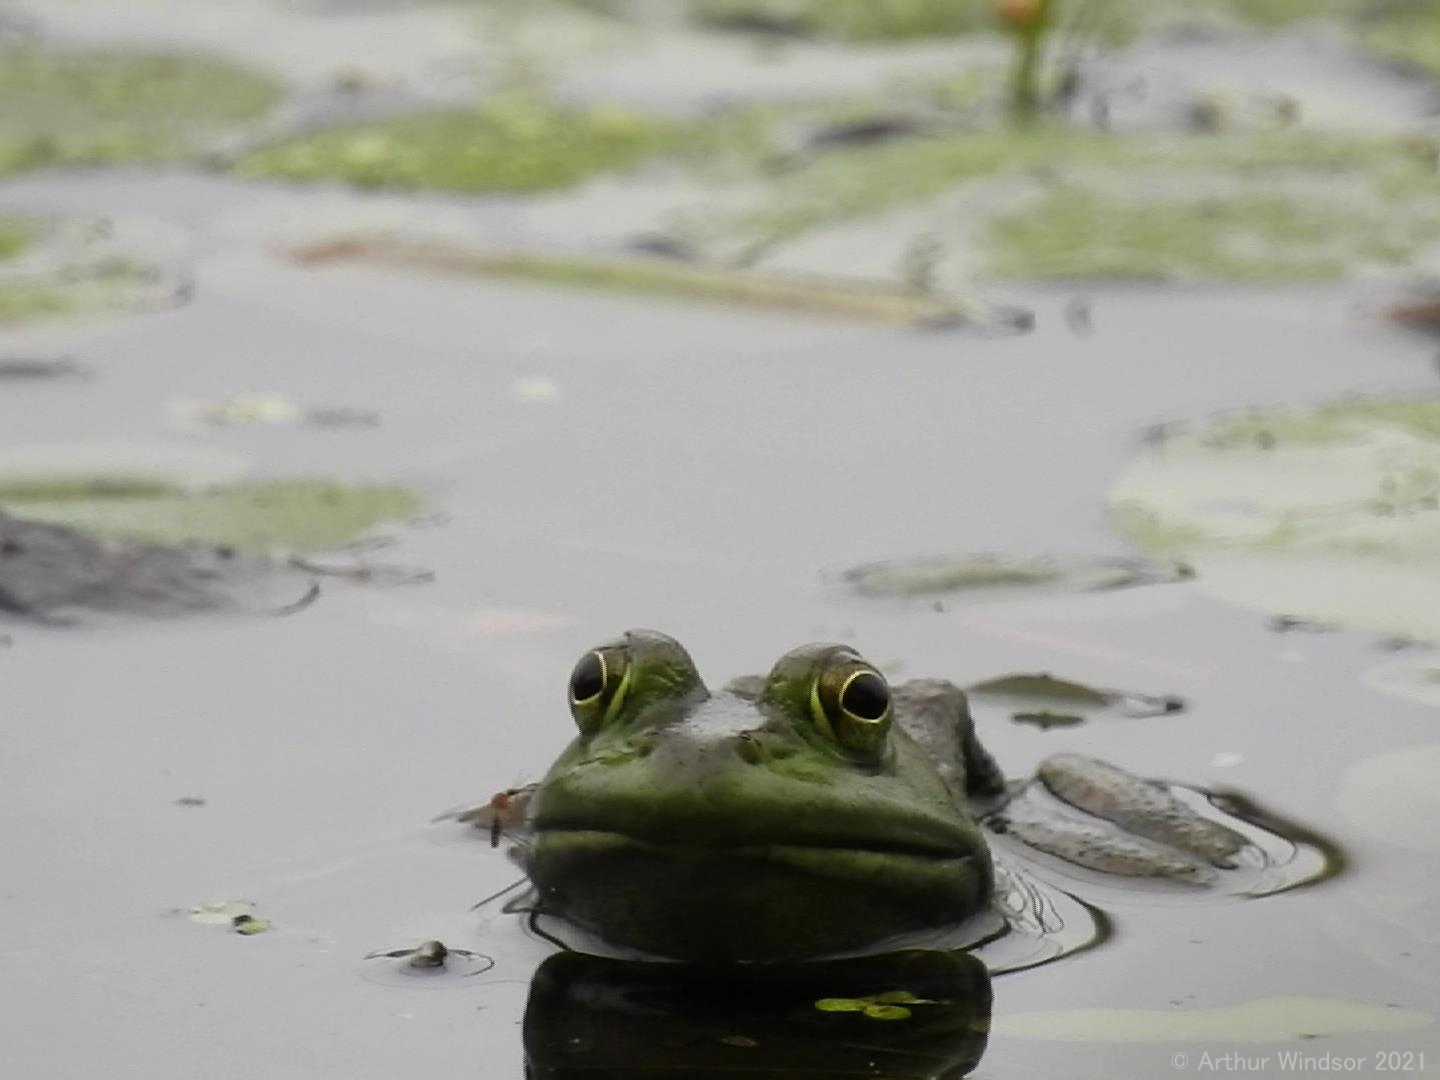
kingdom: Animalia
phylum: Chordata
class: Amphibia
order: Anura
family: Ranidae
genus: Lithobates
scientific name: Lithobates catesbeianus
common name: American bullfrog
